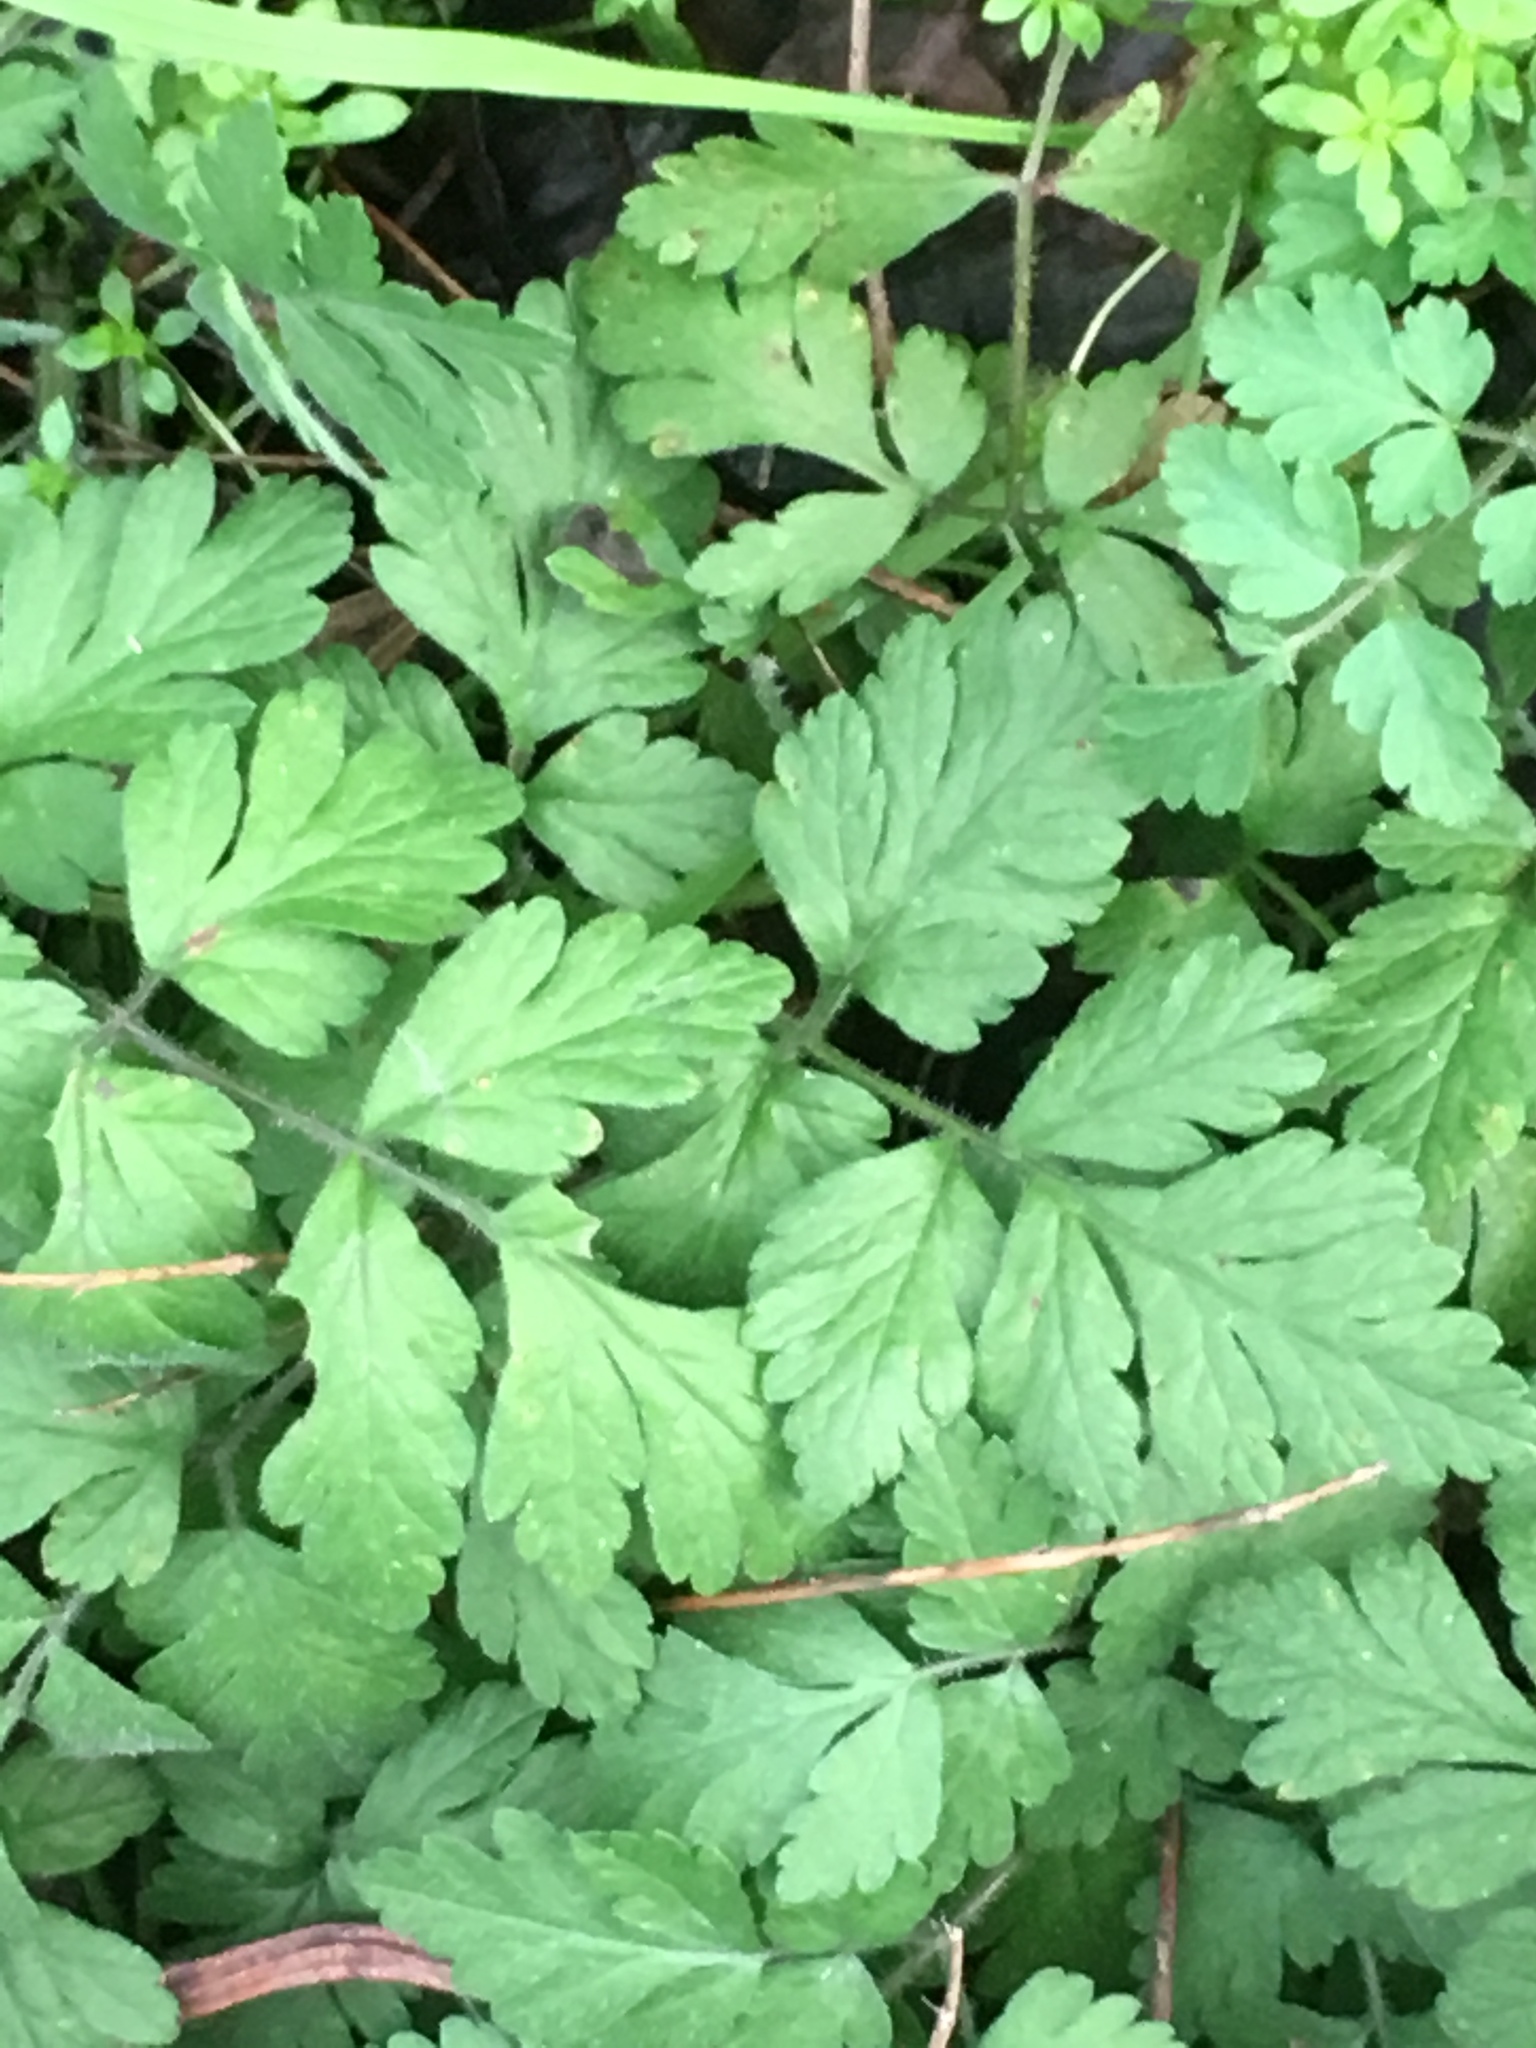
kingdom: Plantae
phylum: Tracheophyta
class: Magnoliopsida
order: Apiales
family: Apiaceae
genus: Chaerophyllum
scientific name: Chaerophyllum temulum
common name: Rough chervil
